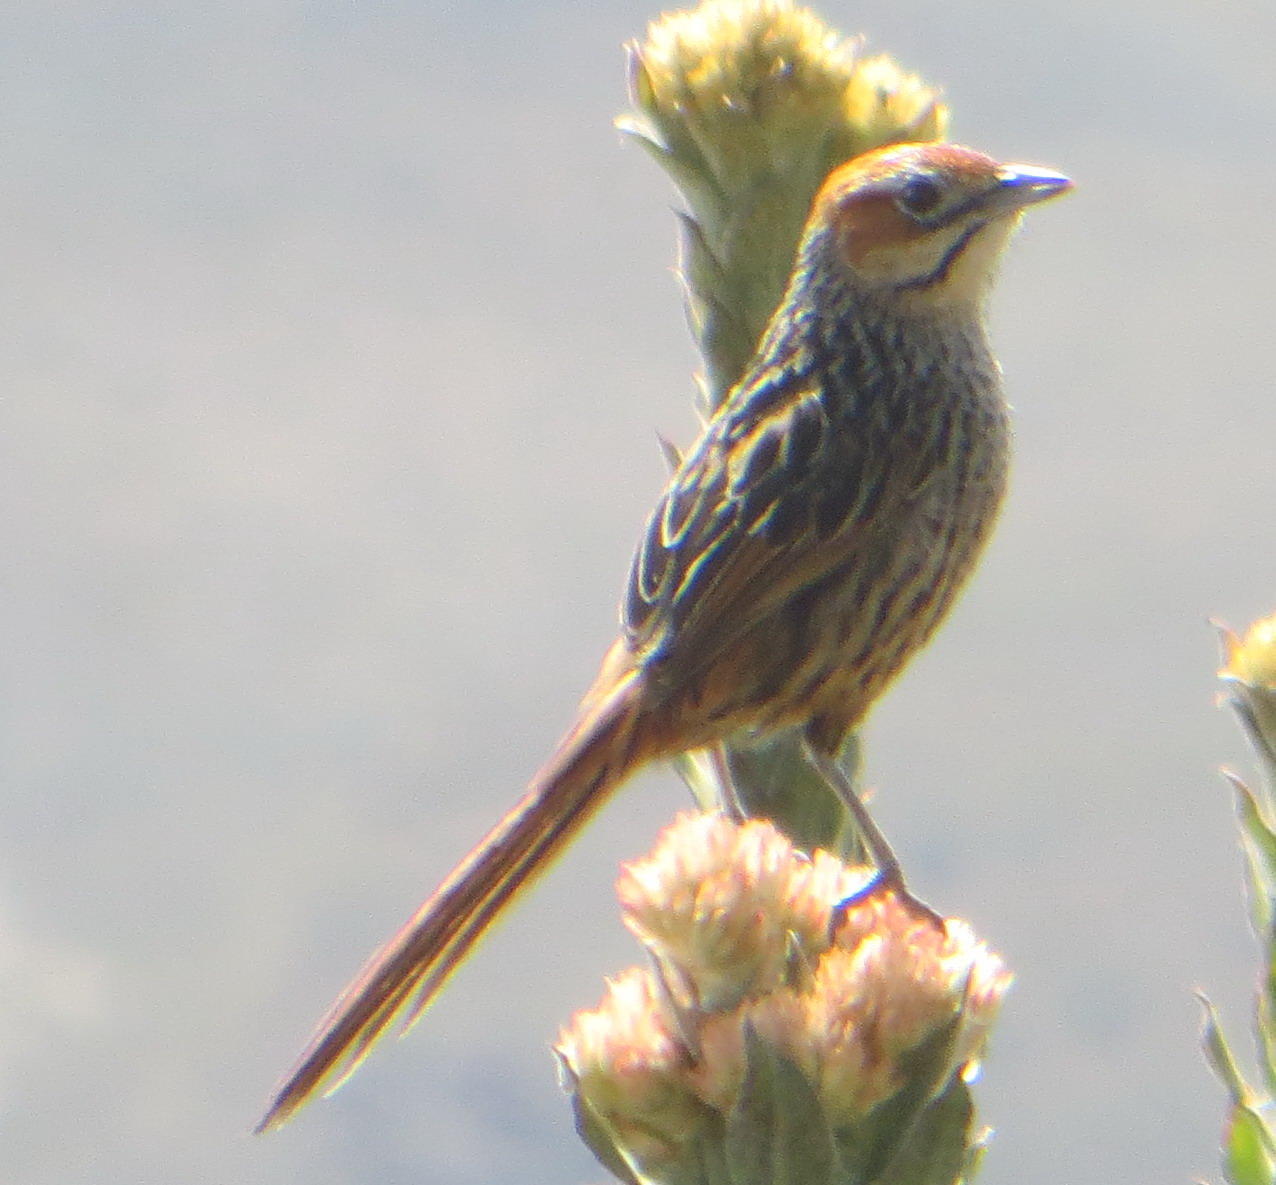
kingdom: Animalia
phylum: Chordata
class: Aves
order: Passeriformes
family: Macrosphenidae
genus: Sphenoeacus
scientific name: Sphenoeacus afer
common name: Cape grassbird
